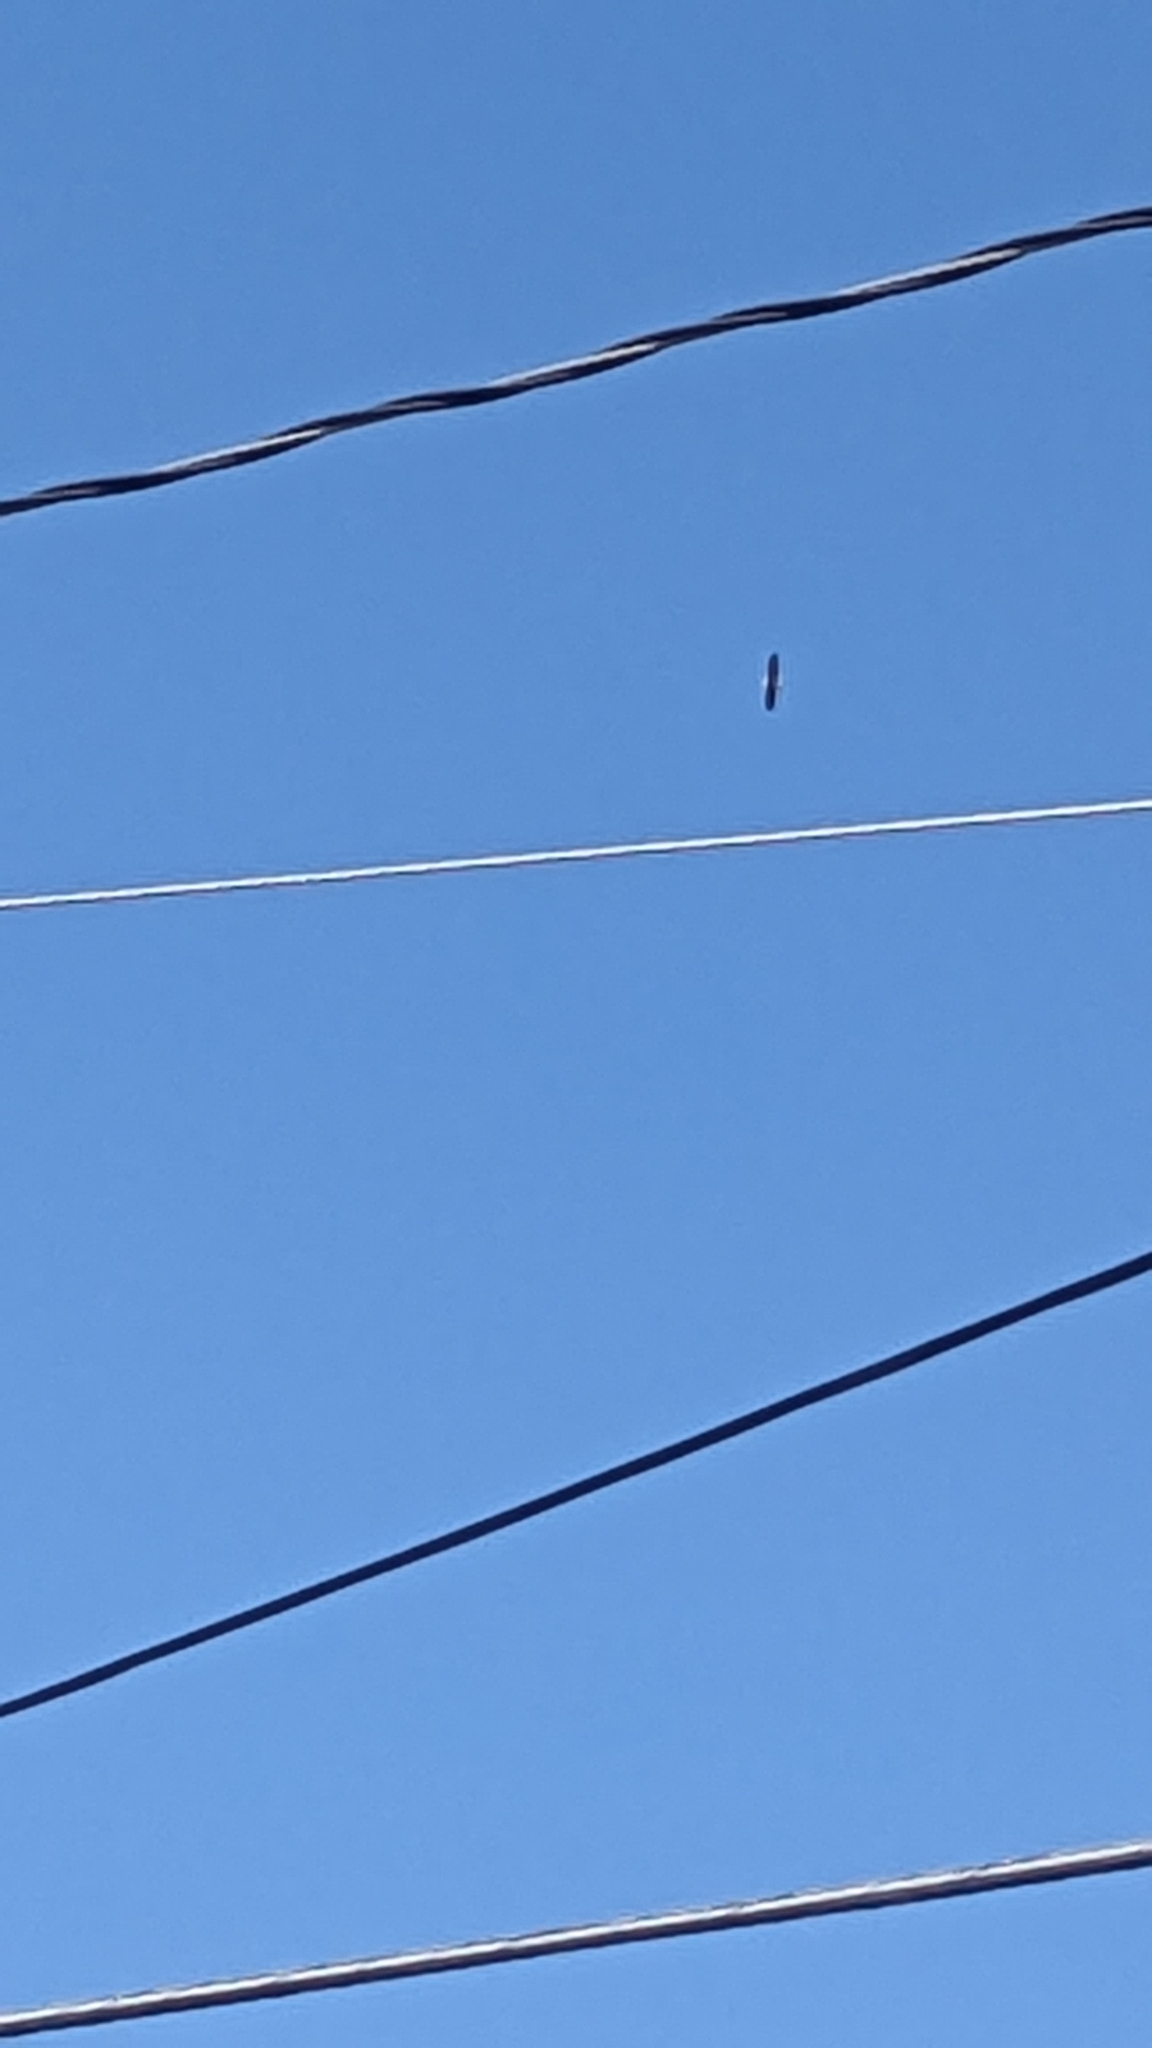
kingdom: Animalia
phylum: Chordata
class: Aves
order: Accipitriformes
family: Accipitridae
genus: Haliaeetus
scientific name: Haliaeetus leucocephalus
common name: Bald eagle
